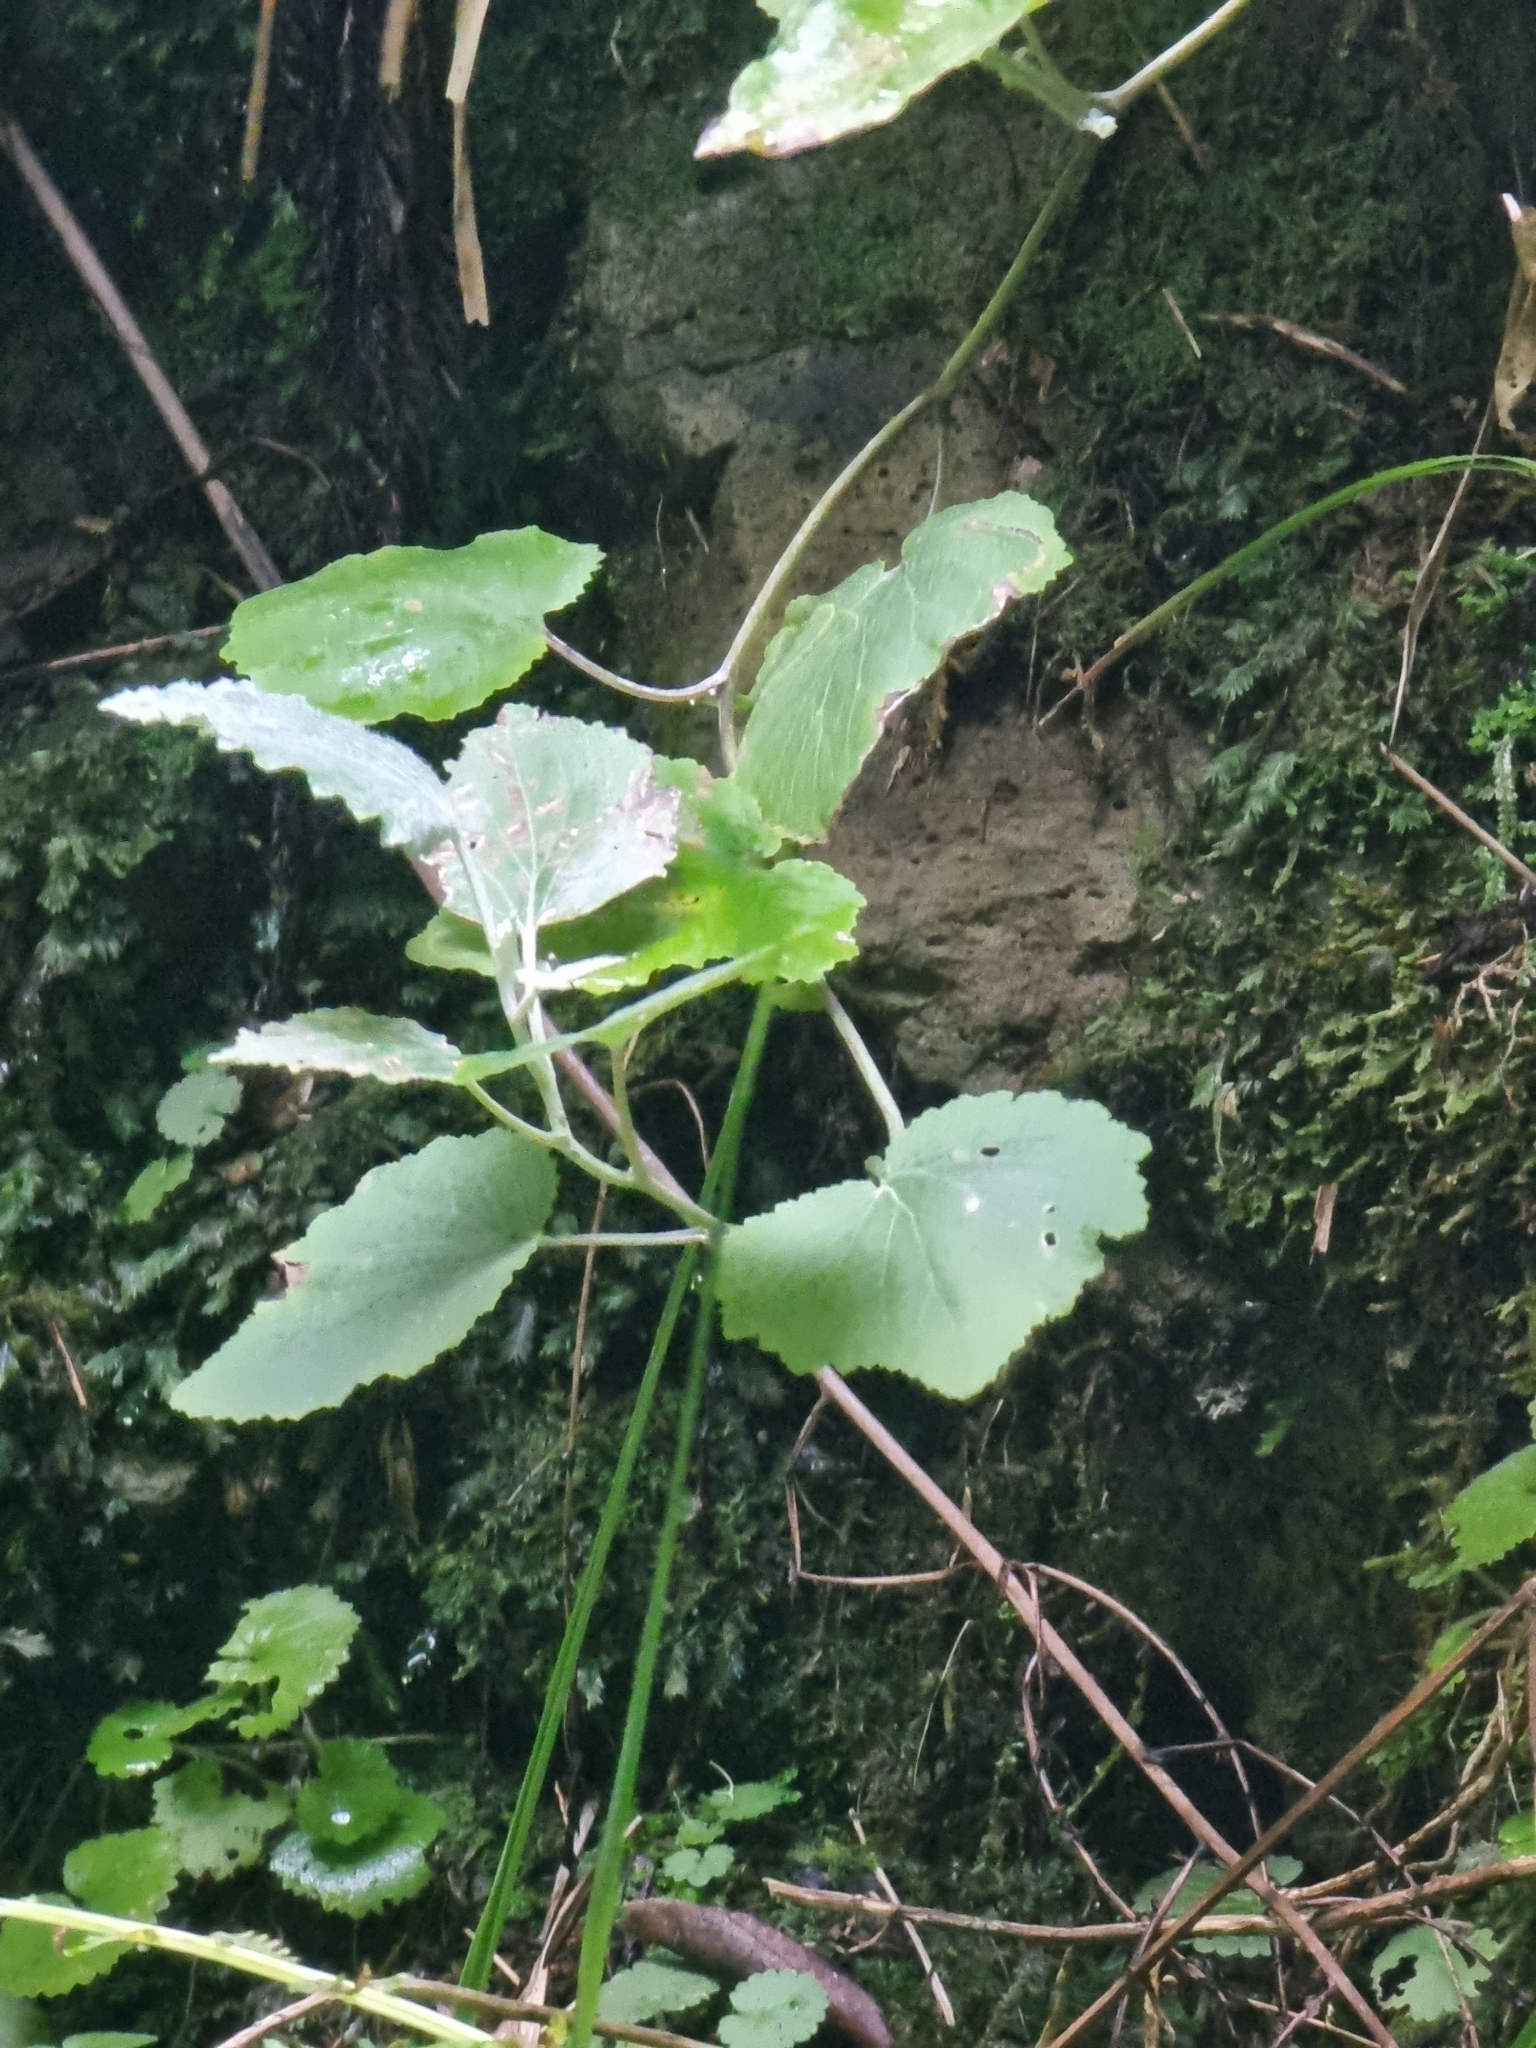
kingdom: Plantae
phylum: Tracheophyta
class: Magnoliopsida
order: Asterales
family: Asteraceae
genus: Pericallis
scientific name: Pericallis aurita
